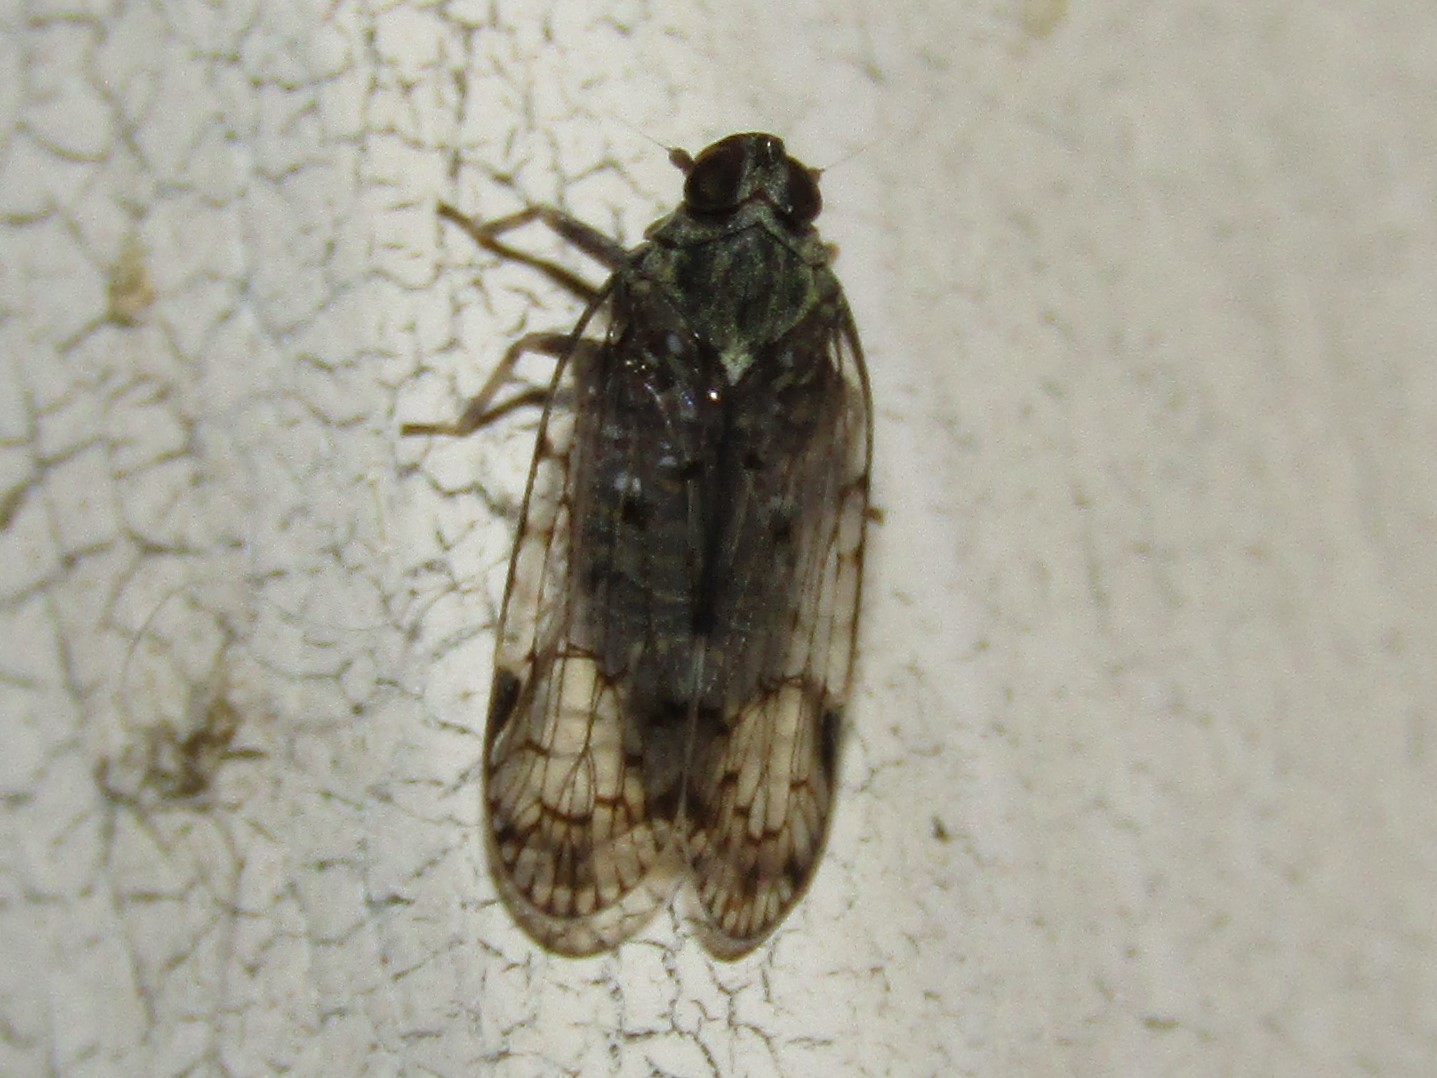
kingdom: Animalia
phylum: Arthropoda
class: Insecta
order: Hemiptera
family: Cixiidae
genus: Melanoliarus
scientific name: Melanoliarus placitus
